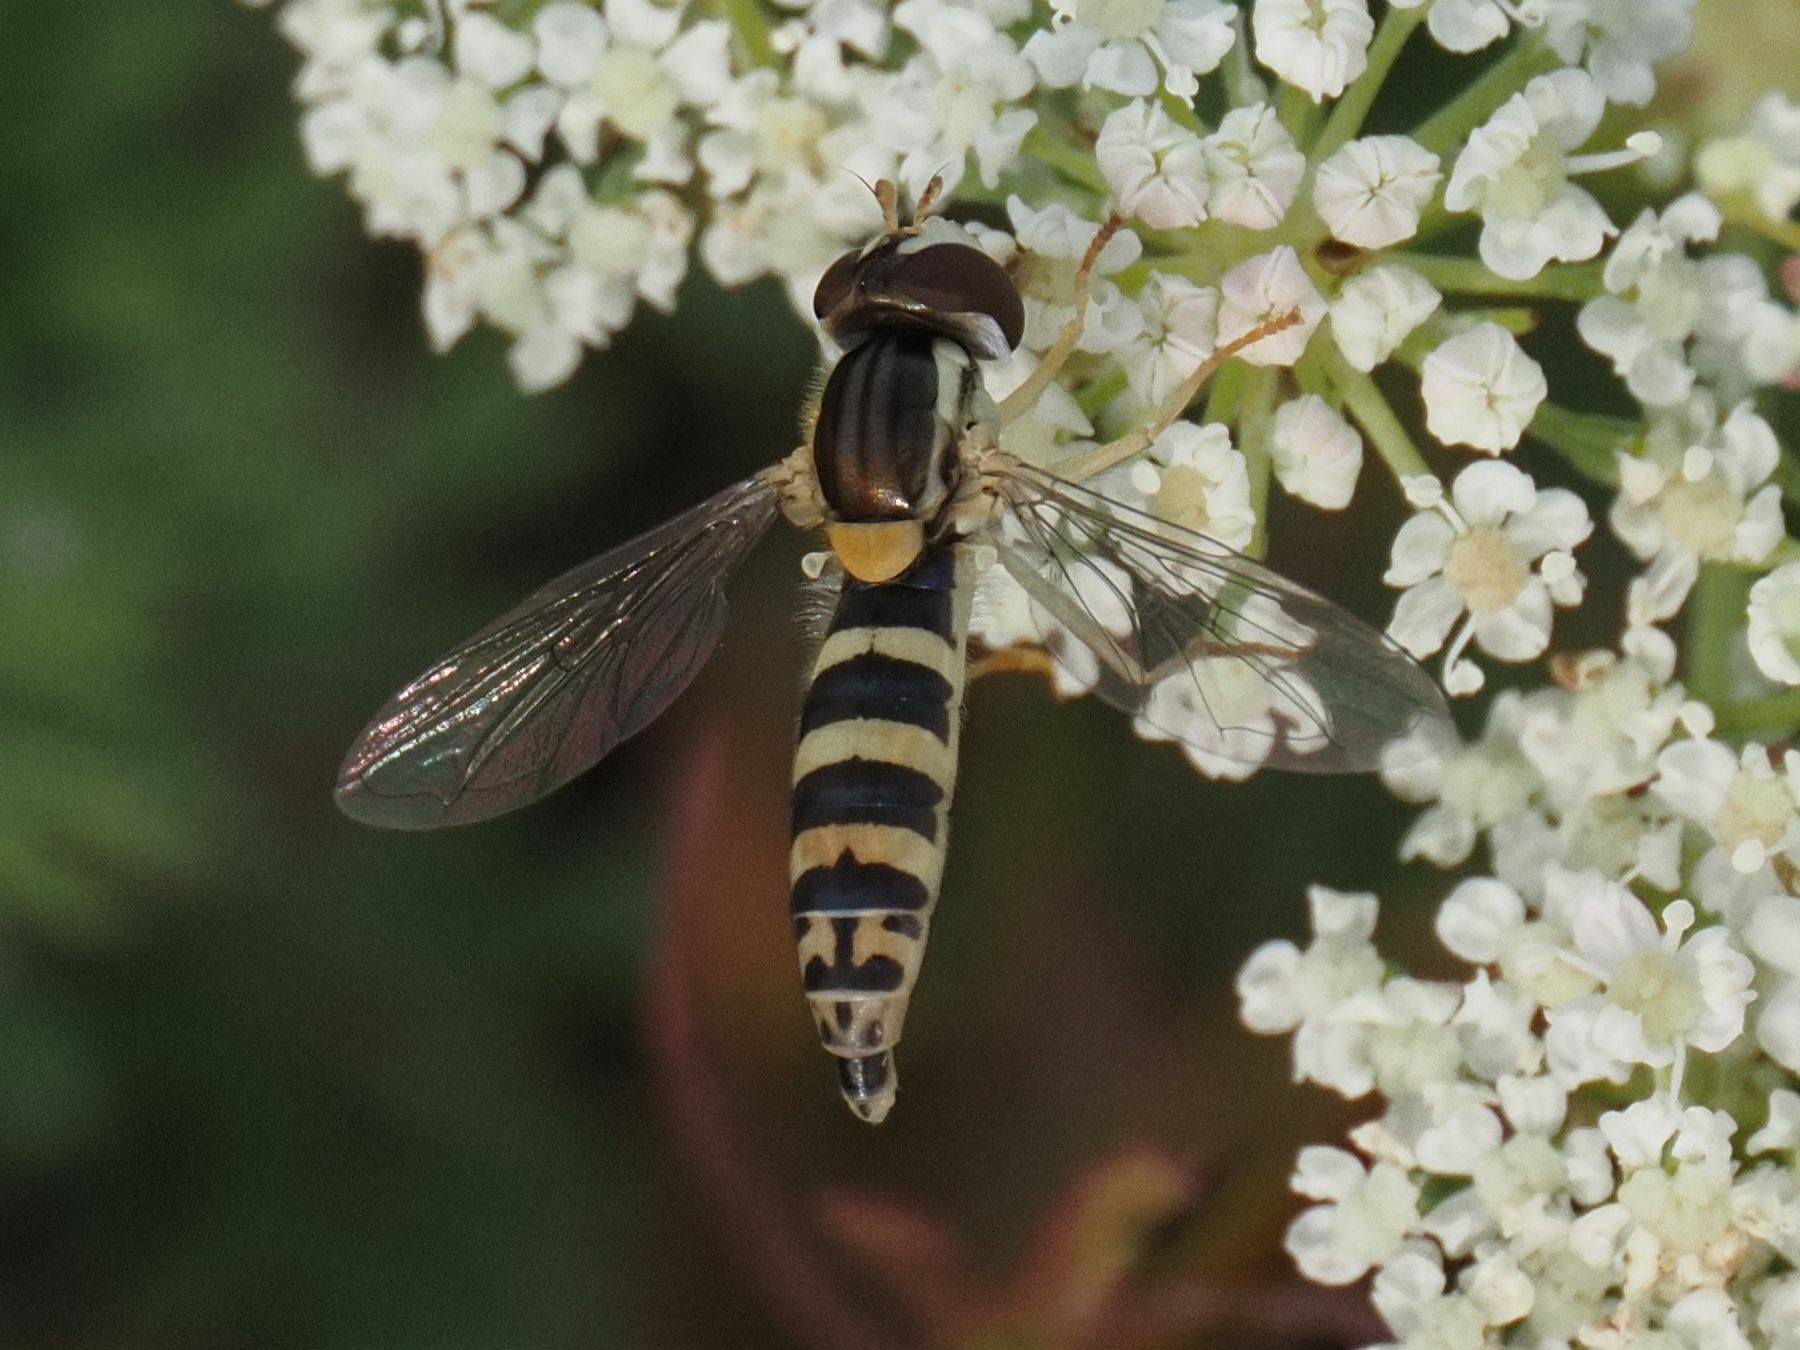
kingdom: Animalia
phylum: Arthropoda
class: Insecta
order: Diptera
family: Syrphidae
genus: Sphaerophoria
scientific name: Sphaerophoria
